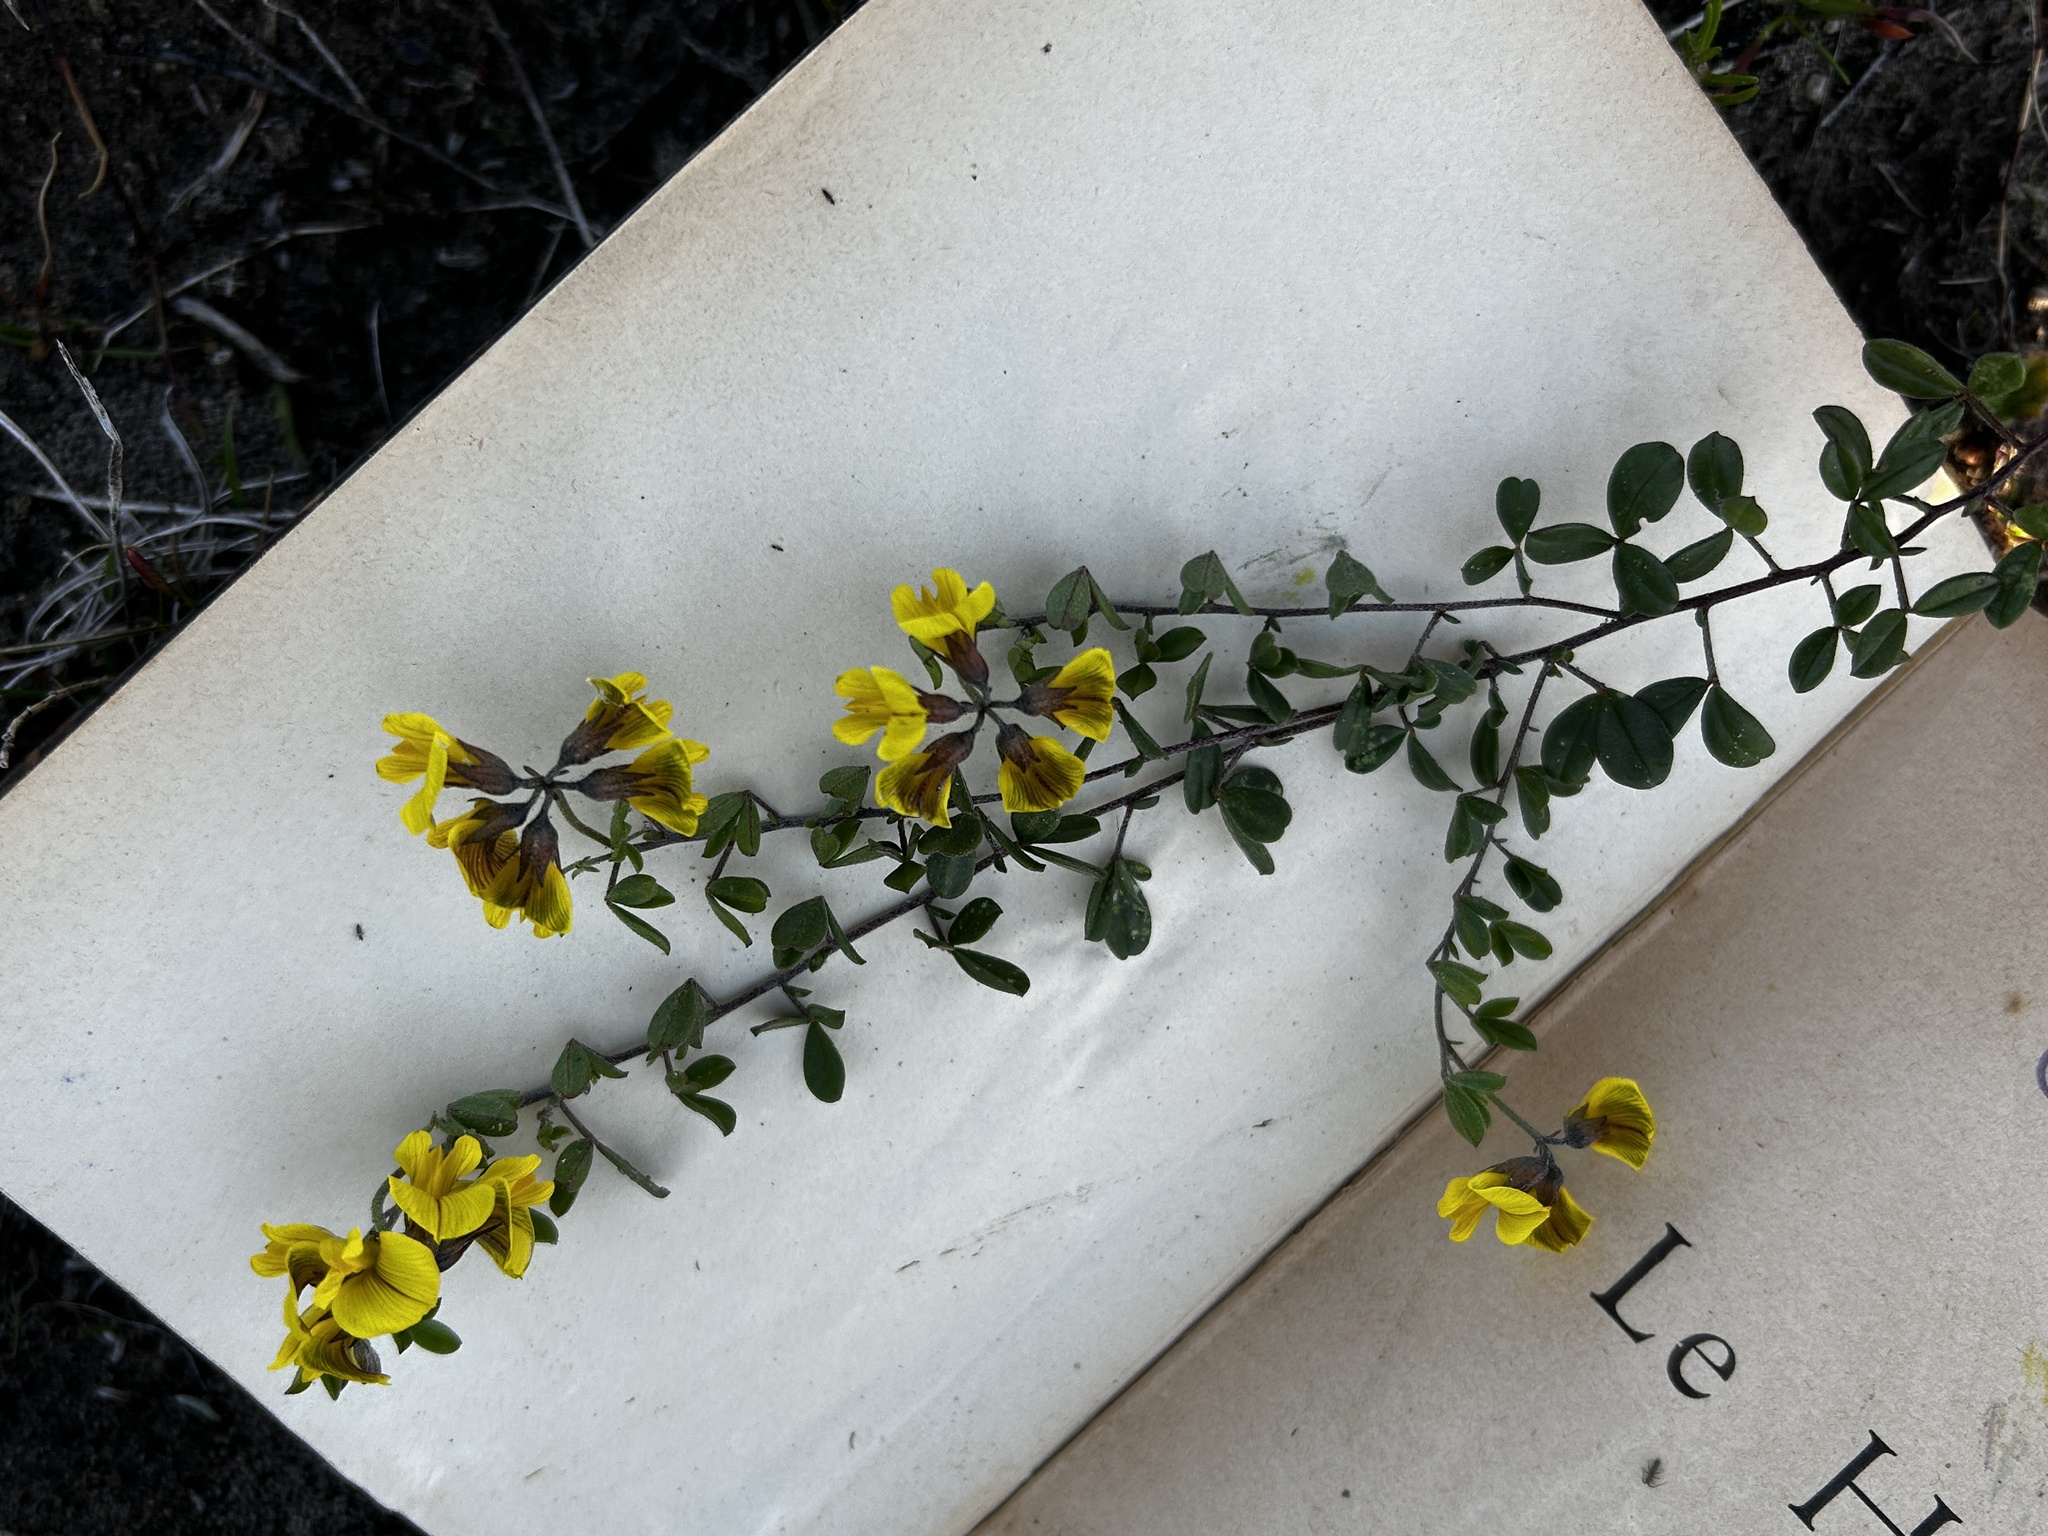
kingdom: Plantae
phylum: Tracheophyta
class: Magnoliopsida
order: Fabales
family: Fabaceae
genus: Lotononis
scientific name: Lotononis umbellata
